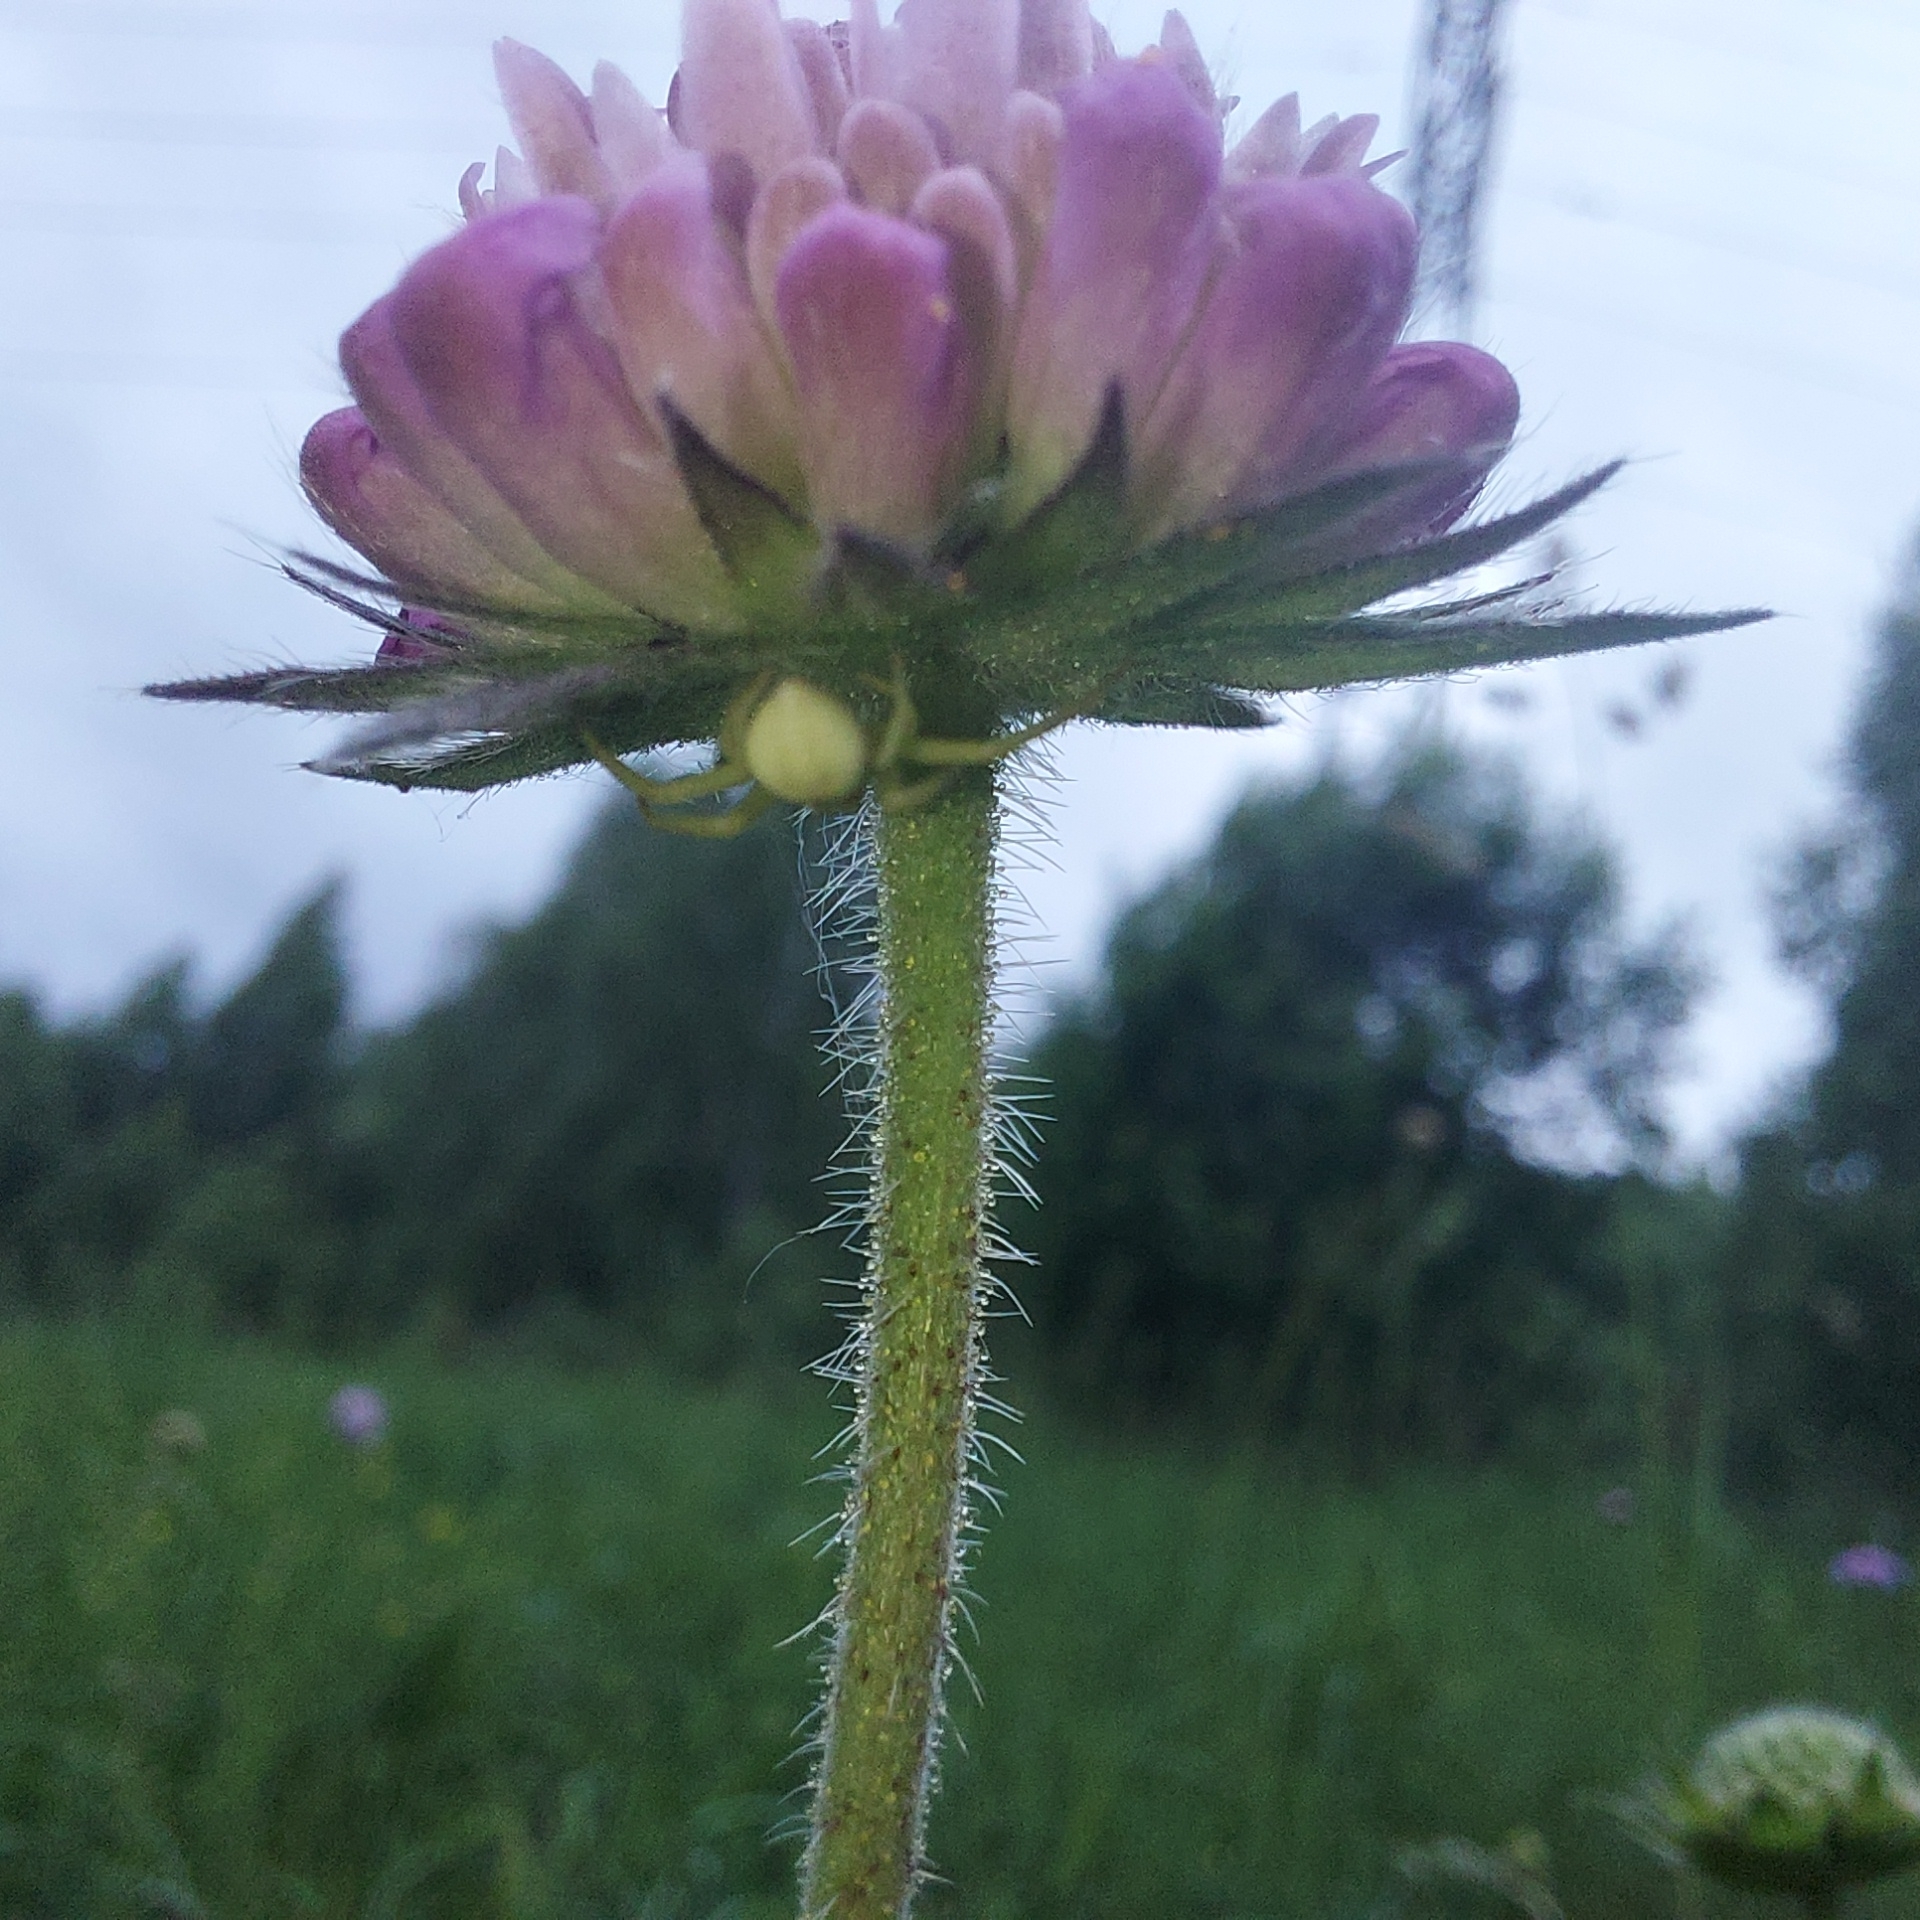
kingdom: Animalia
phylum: Arthropoda
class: Arachnida
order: Araneae
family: Thomisidae
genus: Misumena
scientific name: Misumena vatia
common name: Goldenrod crab spider
